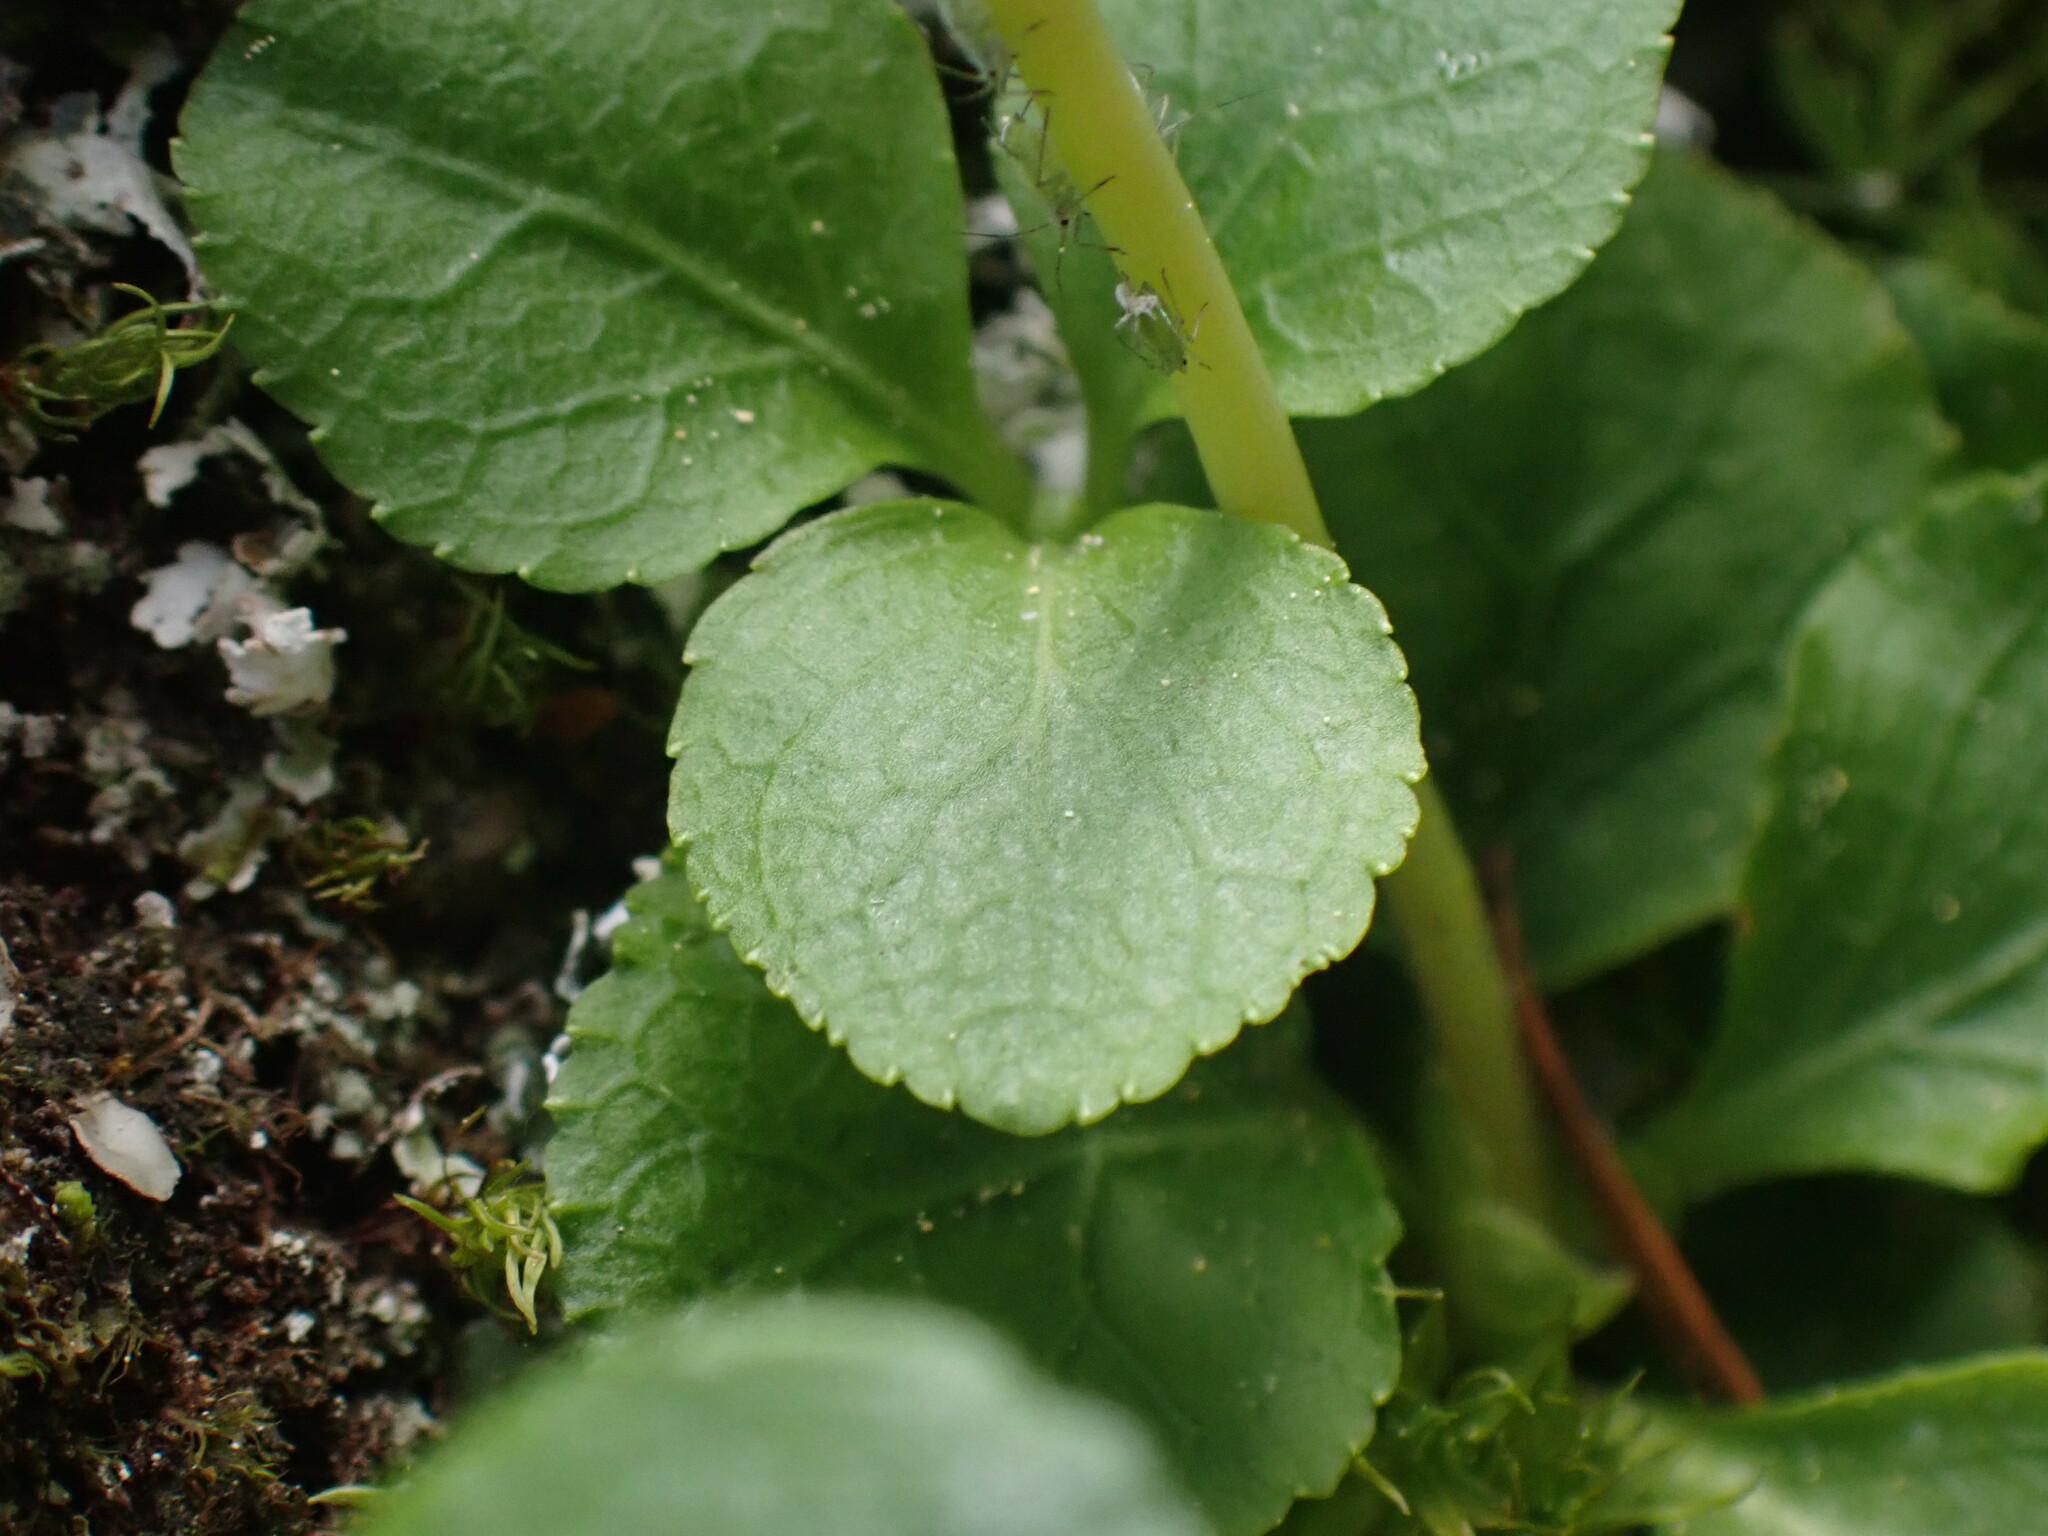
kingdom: Plantae
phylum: Tracheophyta
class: Magnoliopsida
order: Ericales
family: Ericaceae
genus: Moneses
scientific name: Moneses uniflora
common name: One-flowered wintergreen
